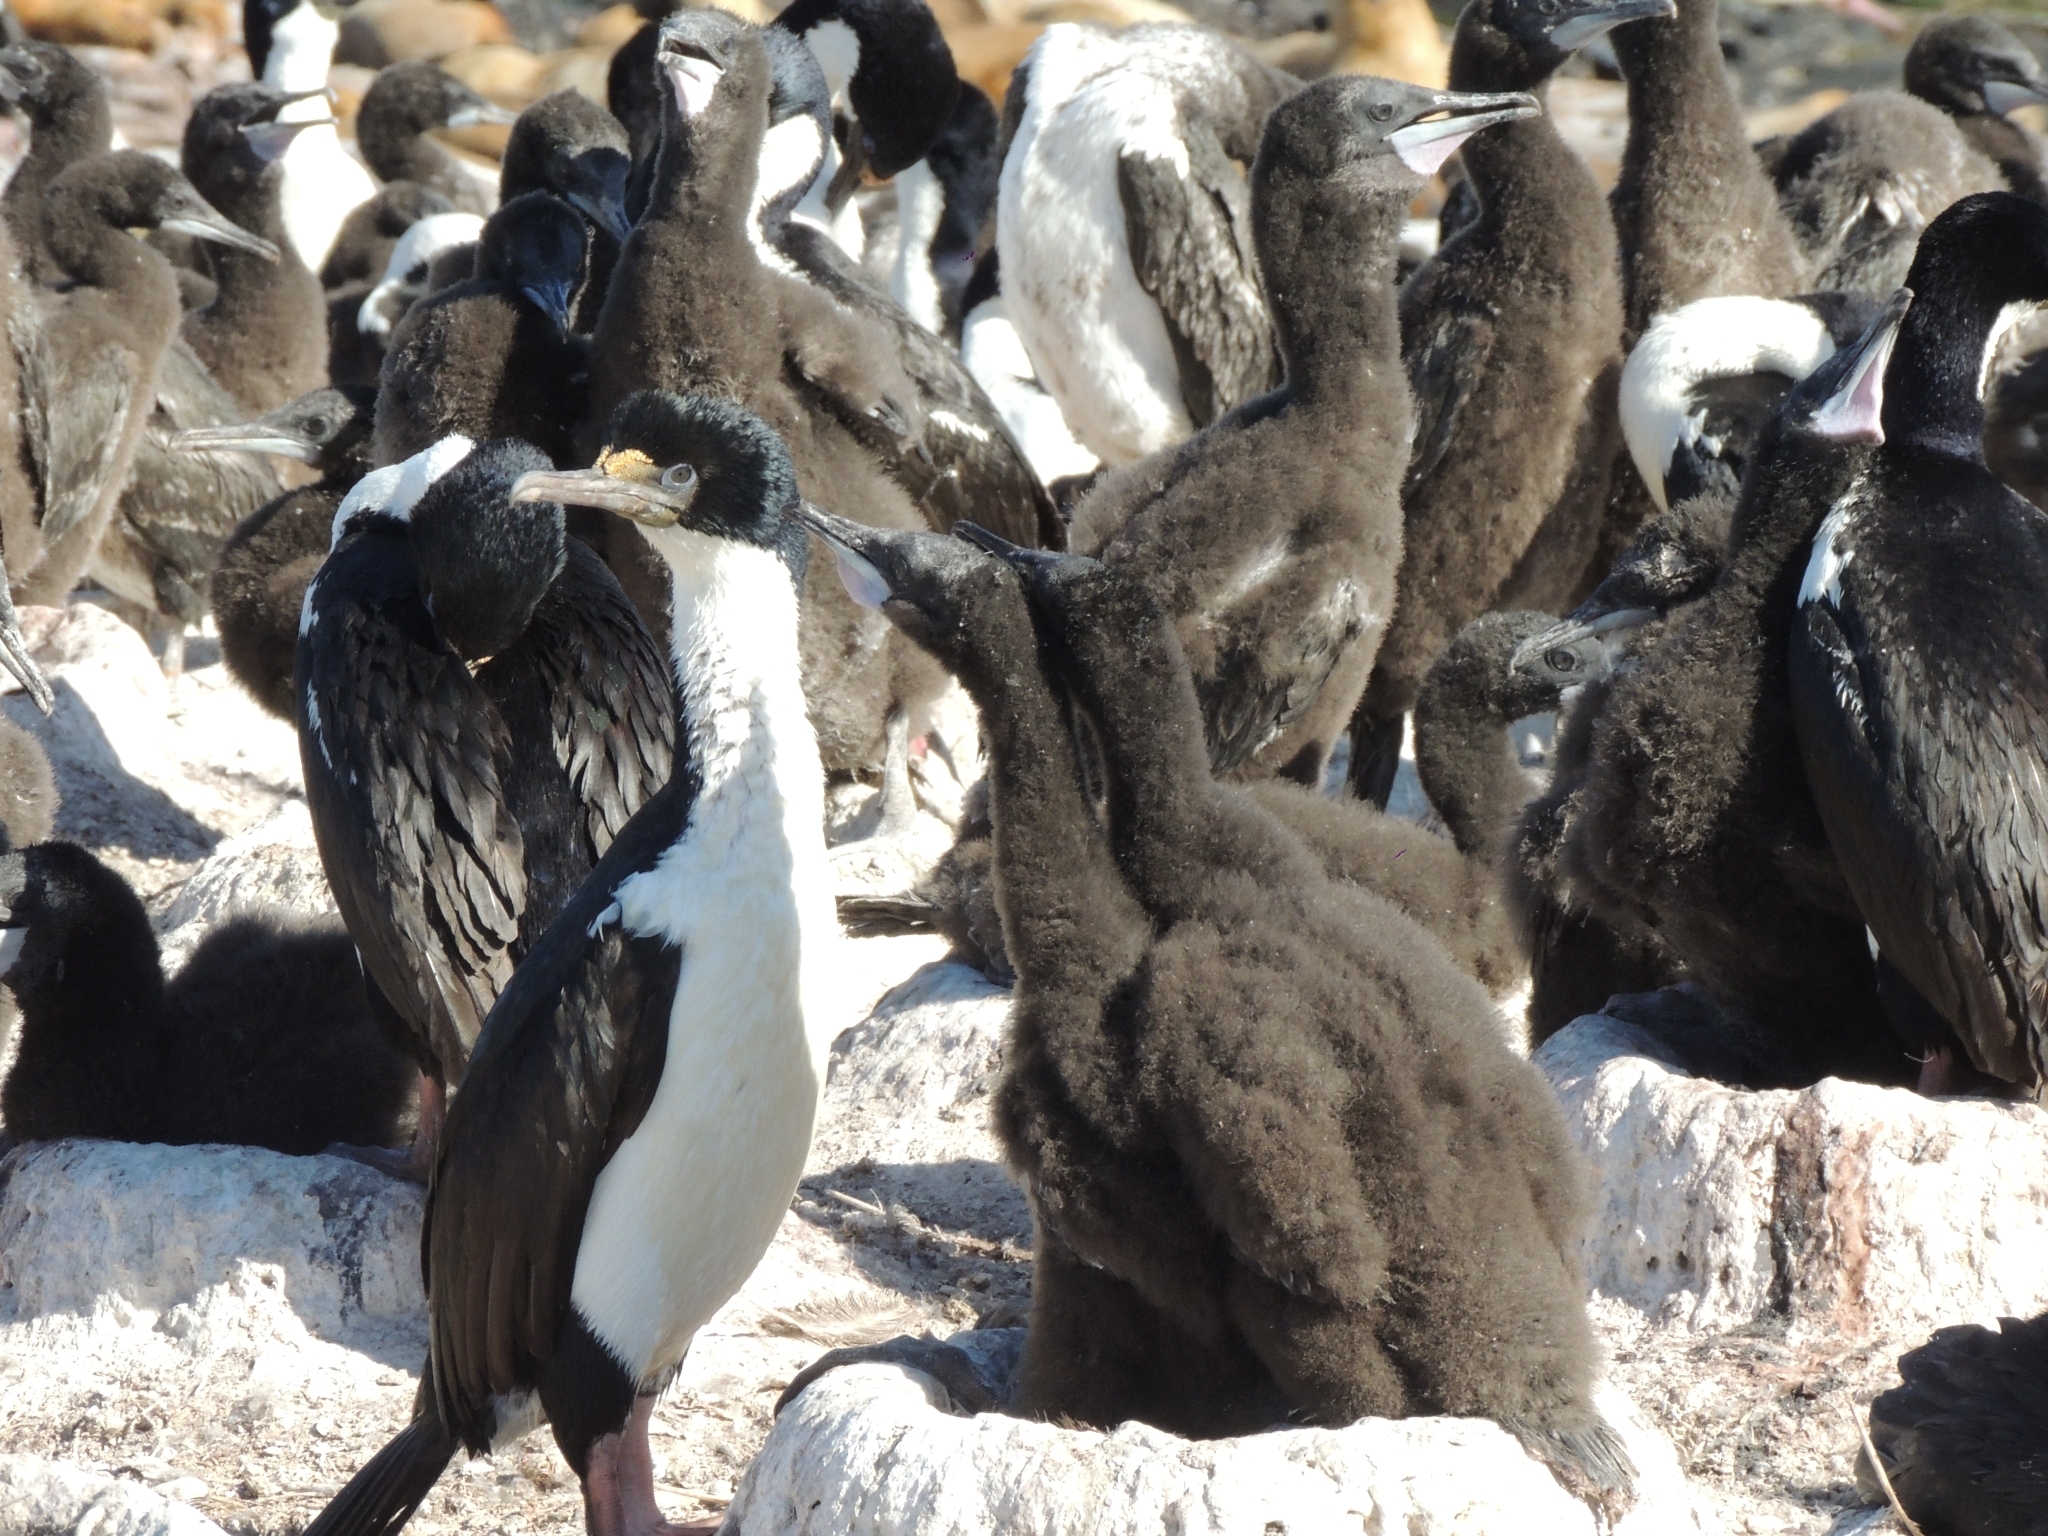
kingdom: Animalia
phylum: Chordata
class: Aves
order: Suliformes
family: Phalacrocoracidae
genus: Leucocarbo
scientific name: Leucocarbo atriceps
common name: Imperial shag
